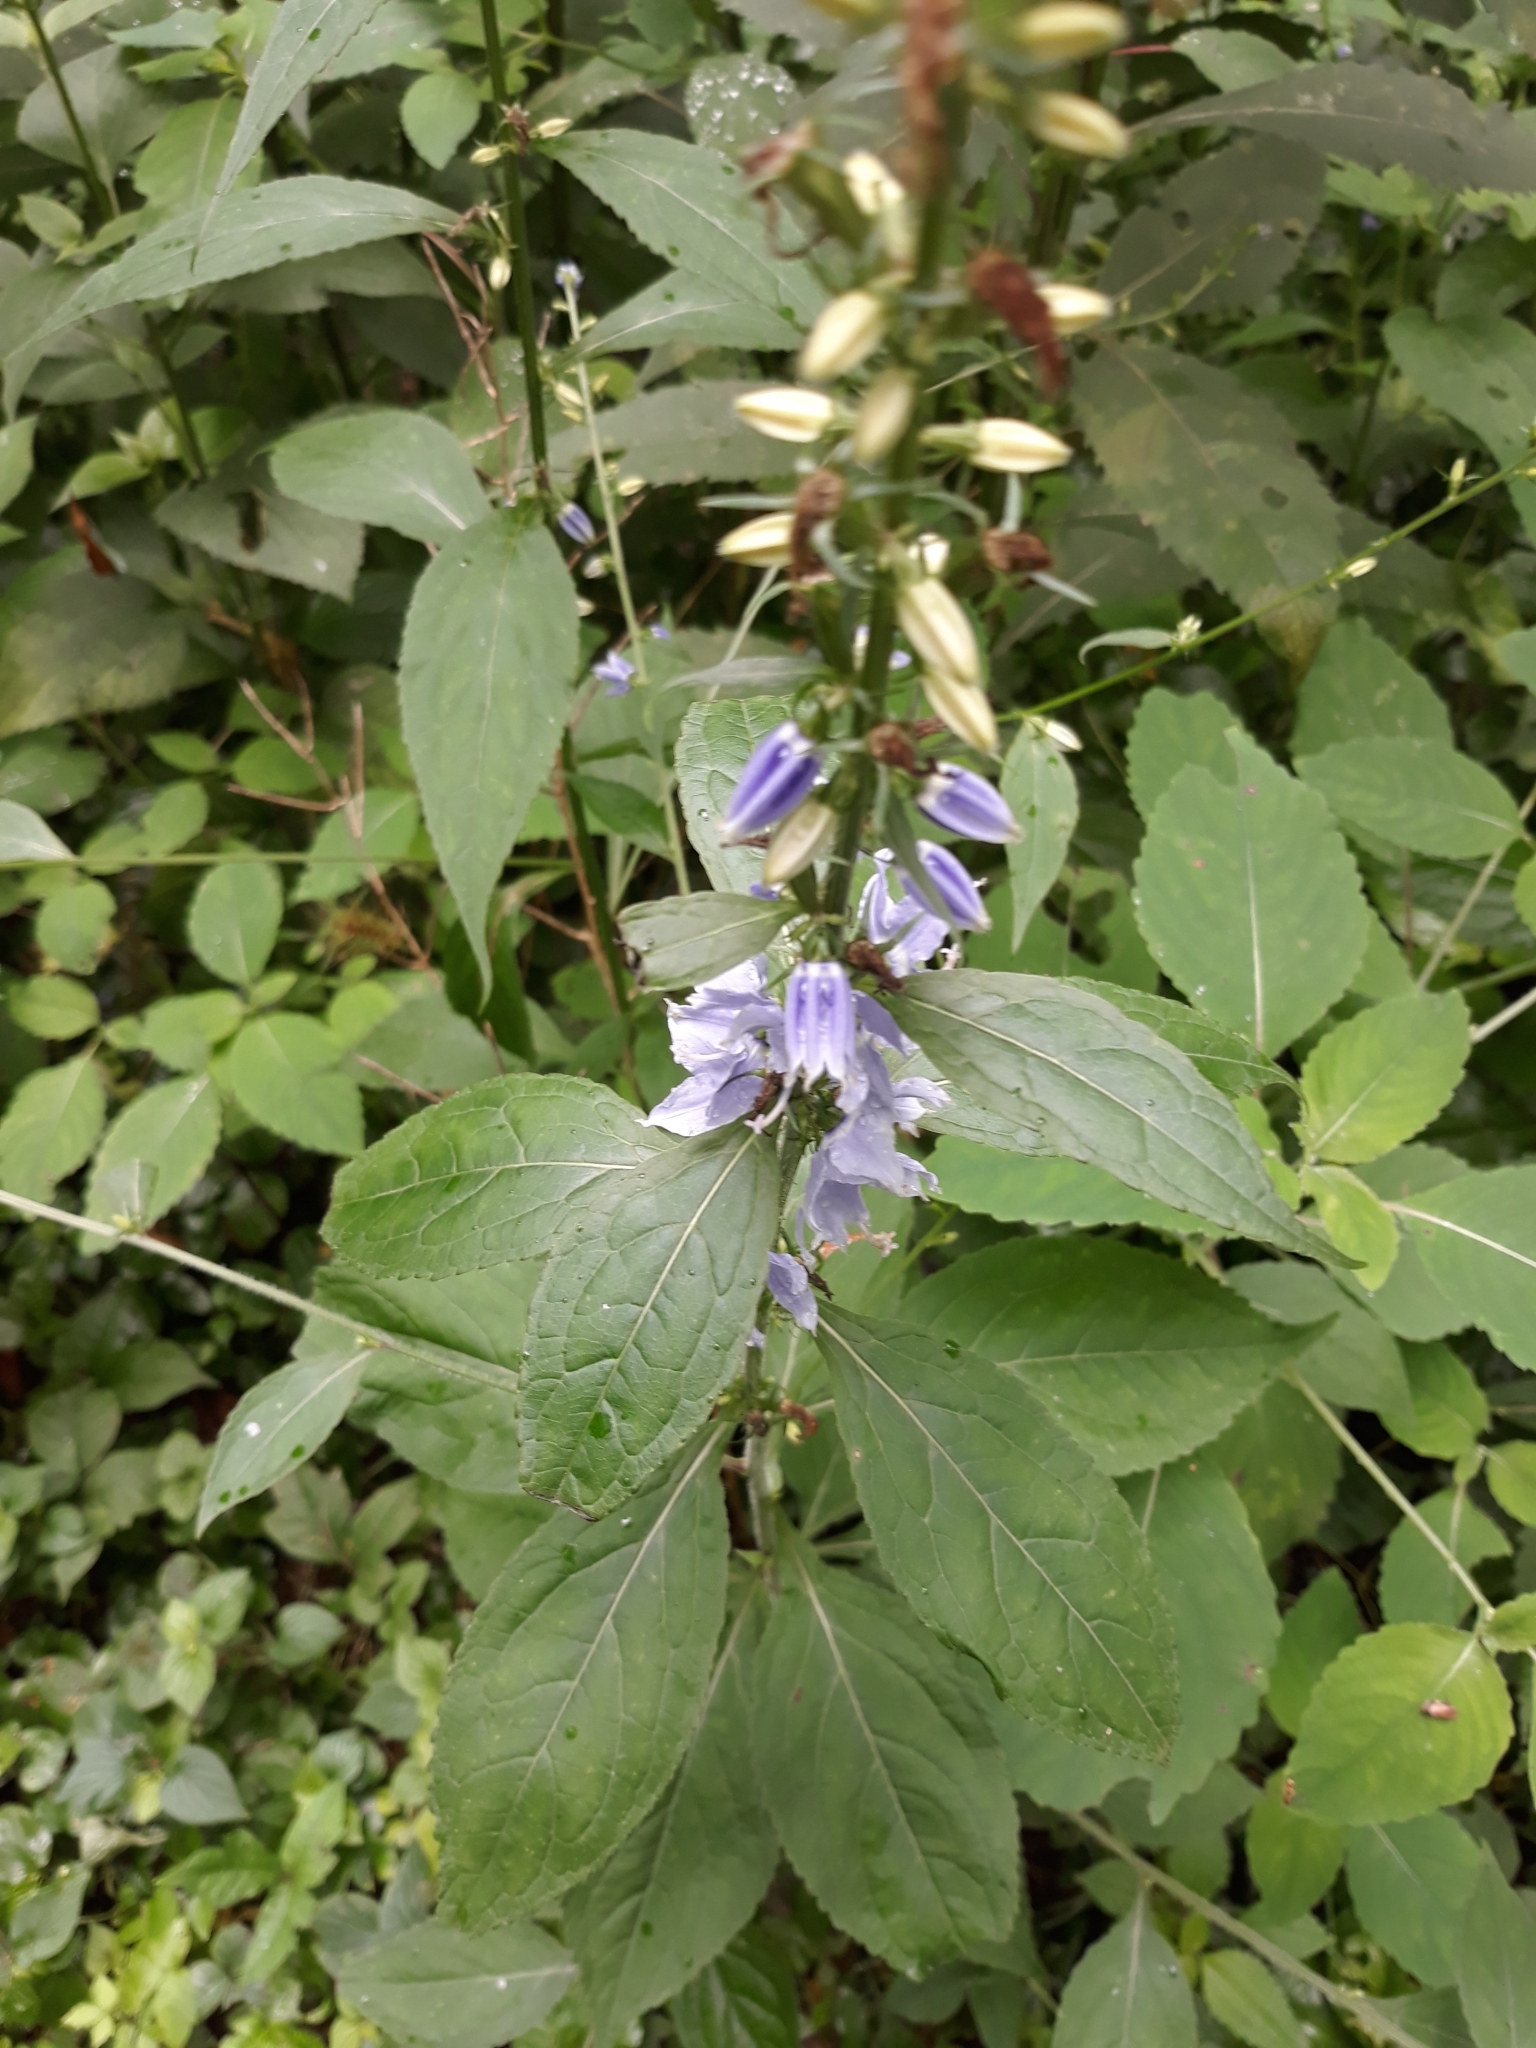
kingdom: Plantae
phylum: Tracheophyta
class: Magnoliopsida
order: Asterales
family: Campanulaceae
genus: Campanulastrum
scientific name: Campanulastrum americanum
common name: American bellflower
